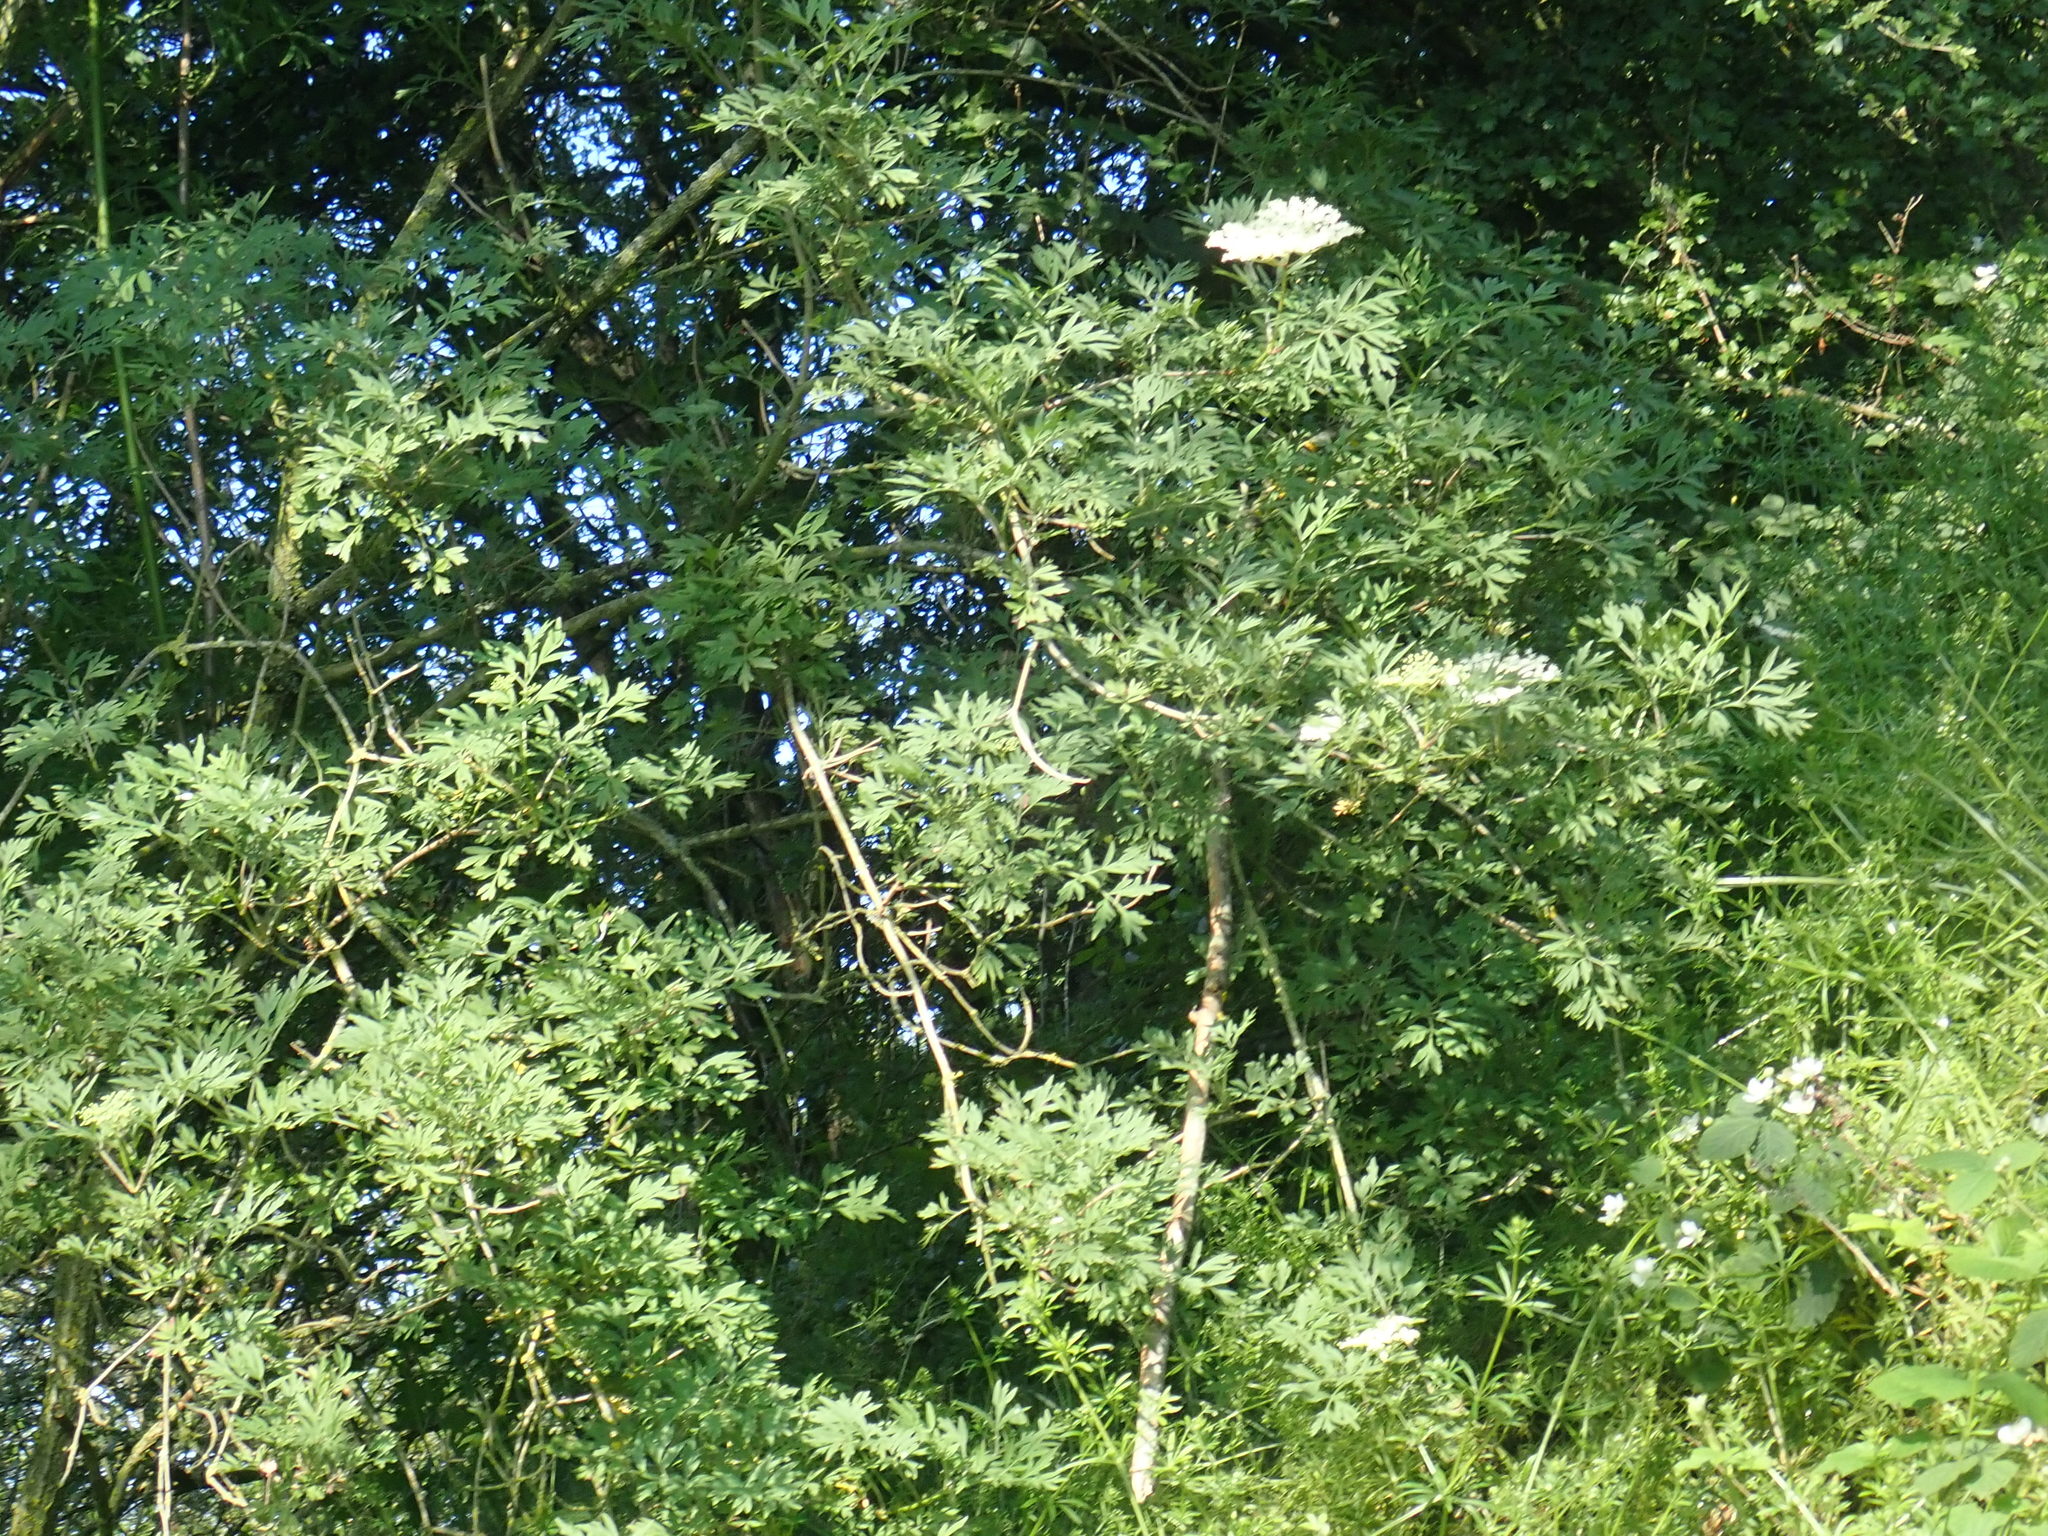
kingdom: Plantae
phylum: Tracheophyta
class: Magnoliopsida
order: Dipsacales
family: Viburnaceae
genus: Sambucus
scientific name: Sambucus nigra
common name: Elder
